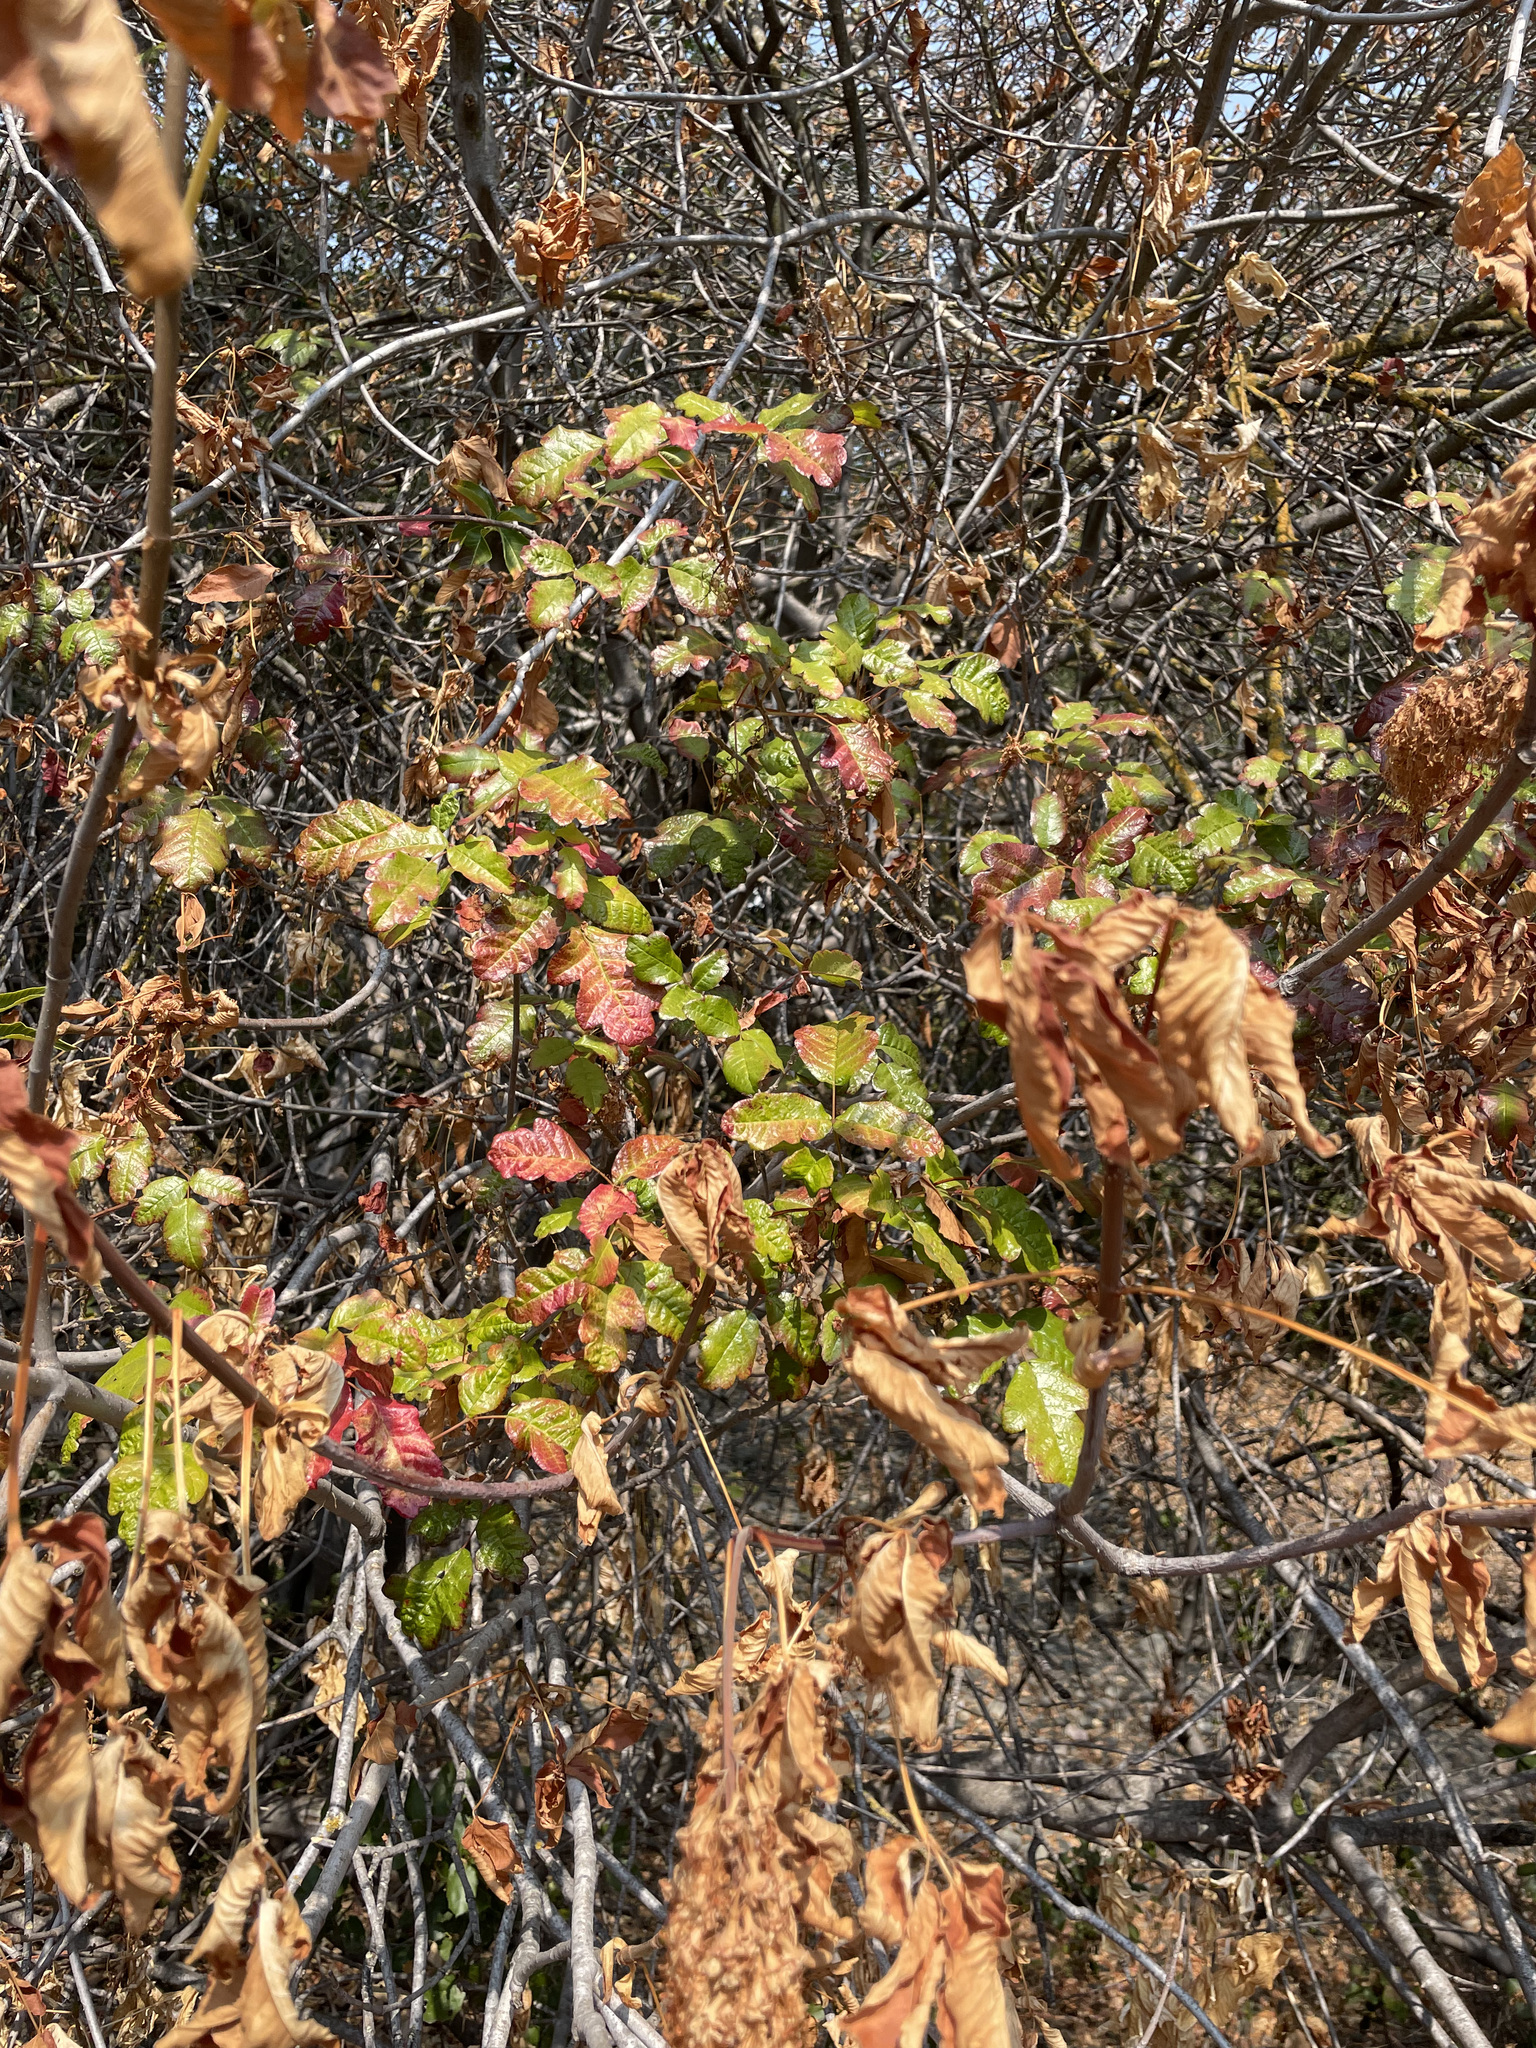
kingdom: Plantae
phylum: Tracheophyta
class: Magnoliopsida
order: Sapindales
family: Anacardiaceae
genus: Toxicodendron
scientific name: Toxicodendron diversilobum
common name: Pacific poison-oak
